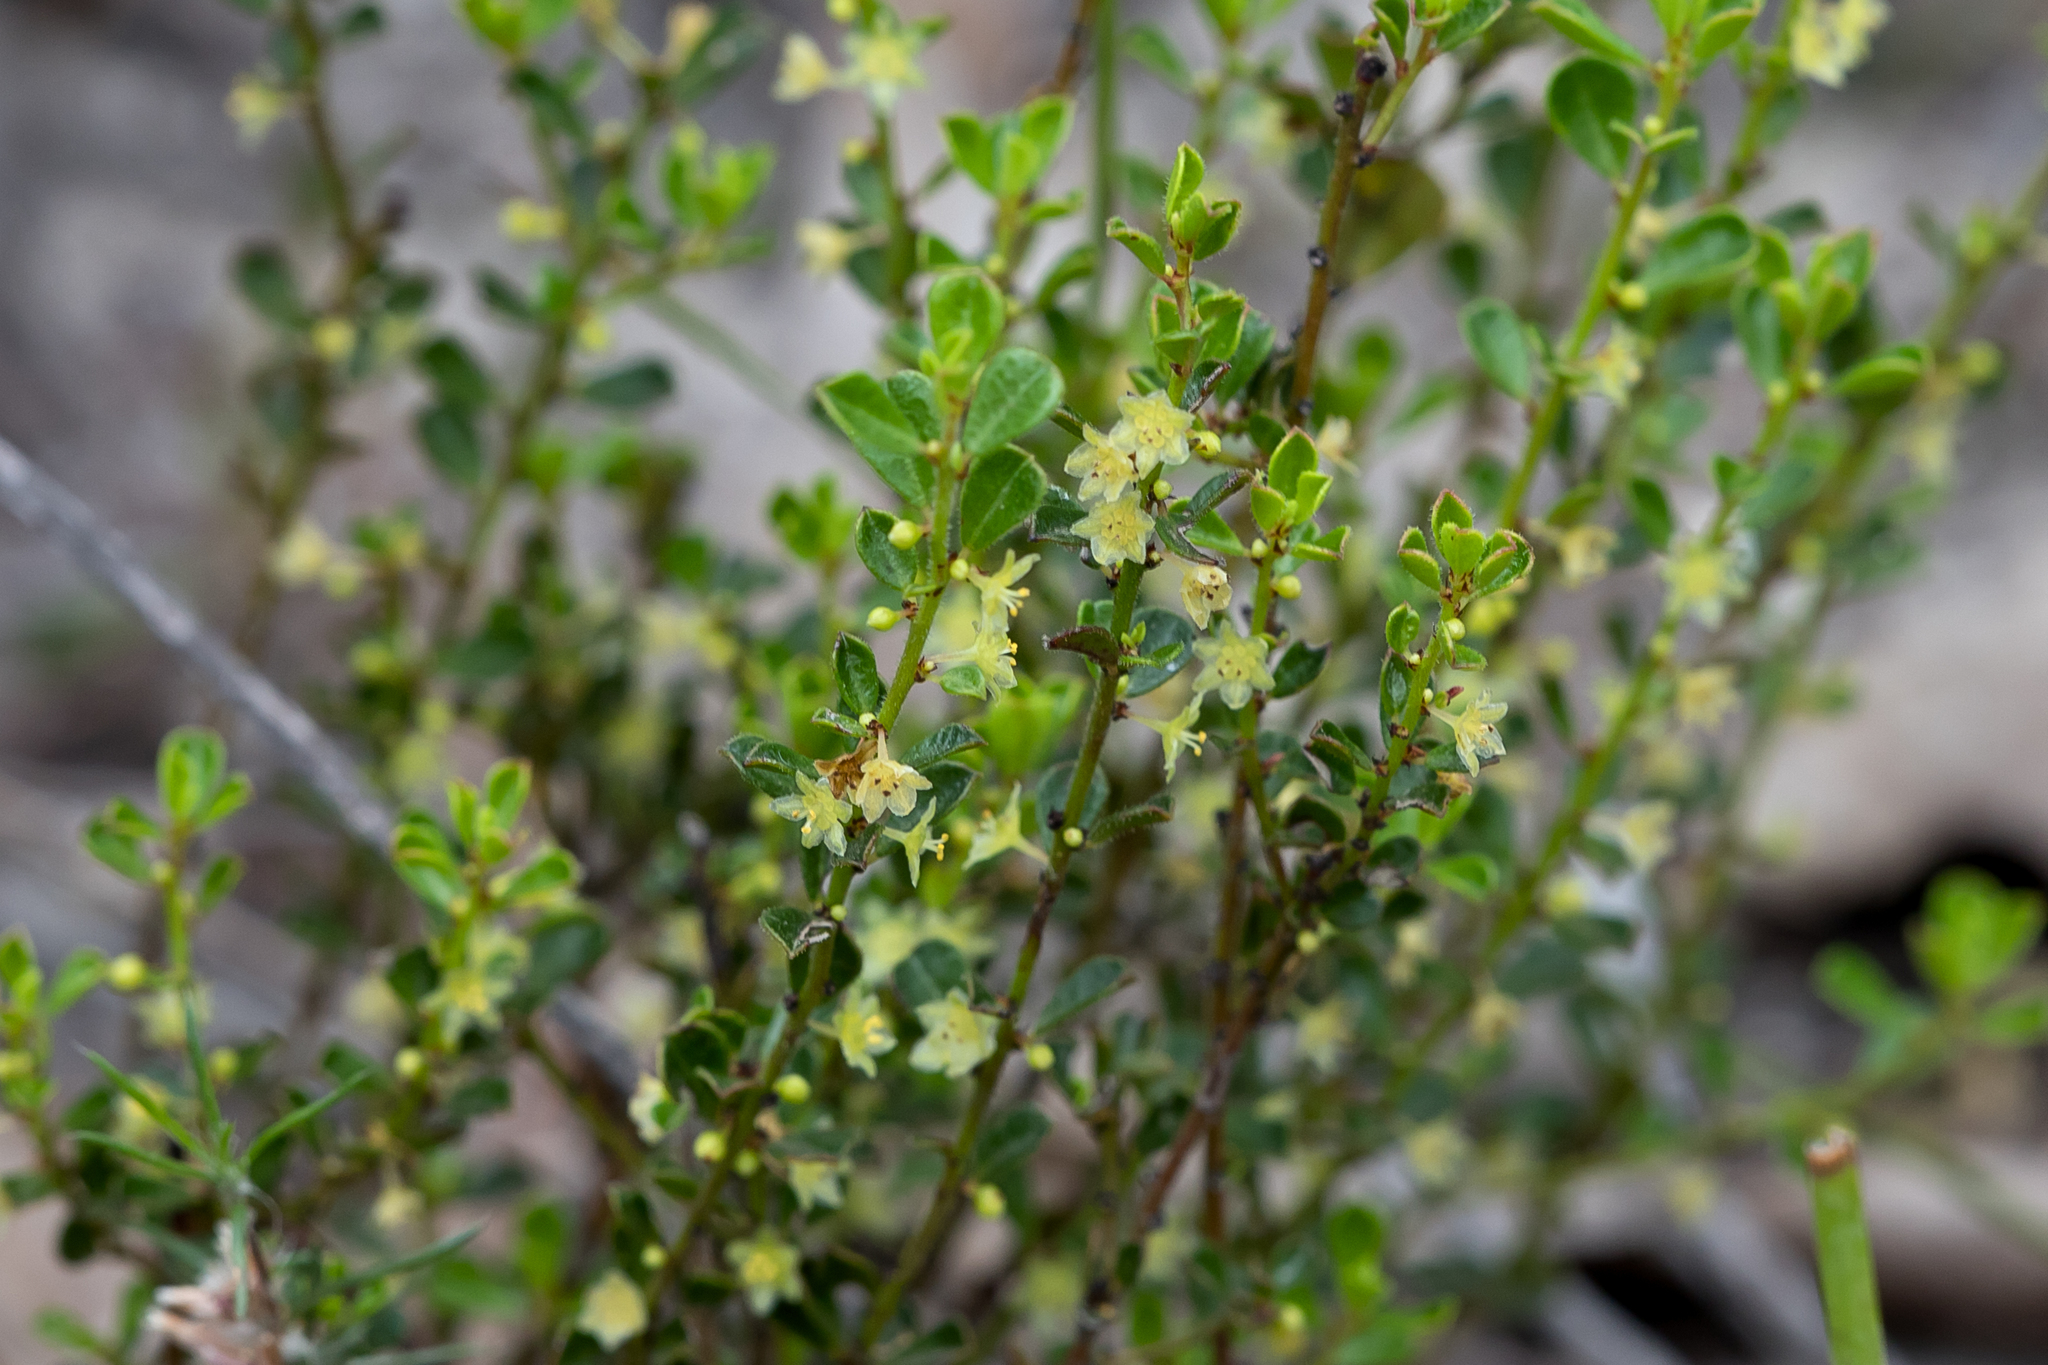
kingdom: Plantae
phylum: Tracheophyta
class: Magnoliopsida
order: Malpighiales
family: Phyllanthaceae
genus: Phyllanthus
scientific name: Phyllanthus hirtellus
